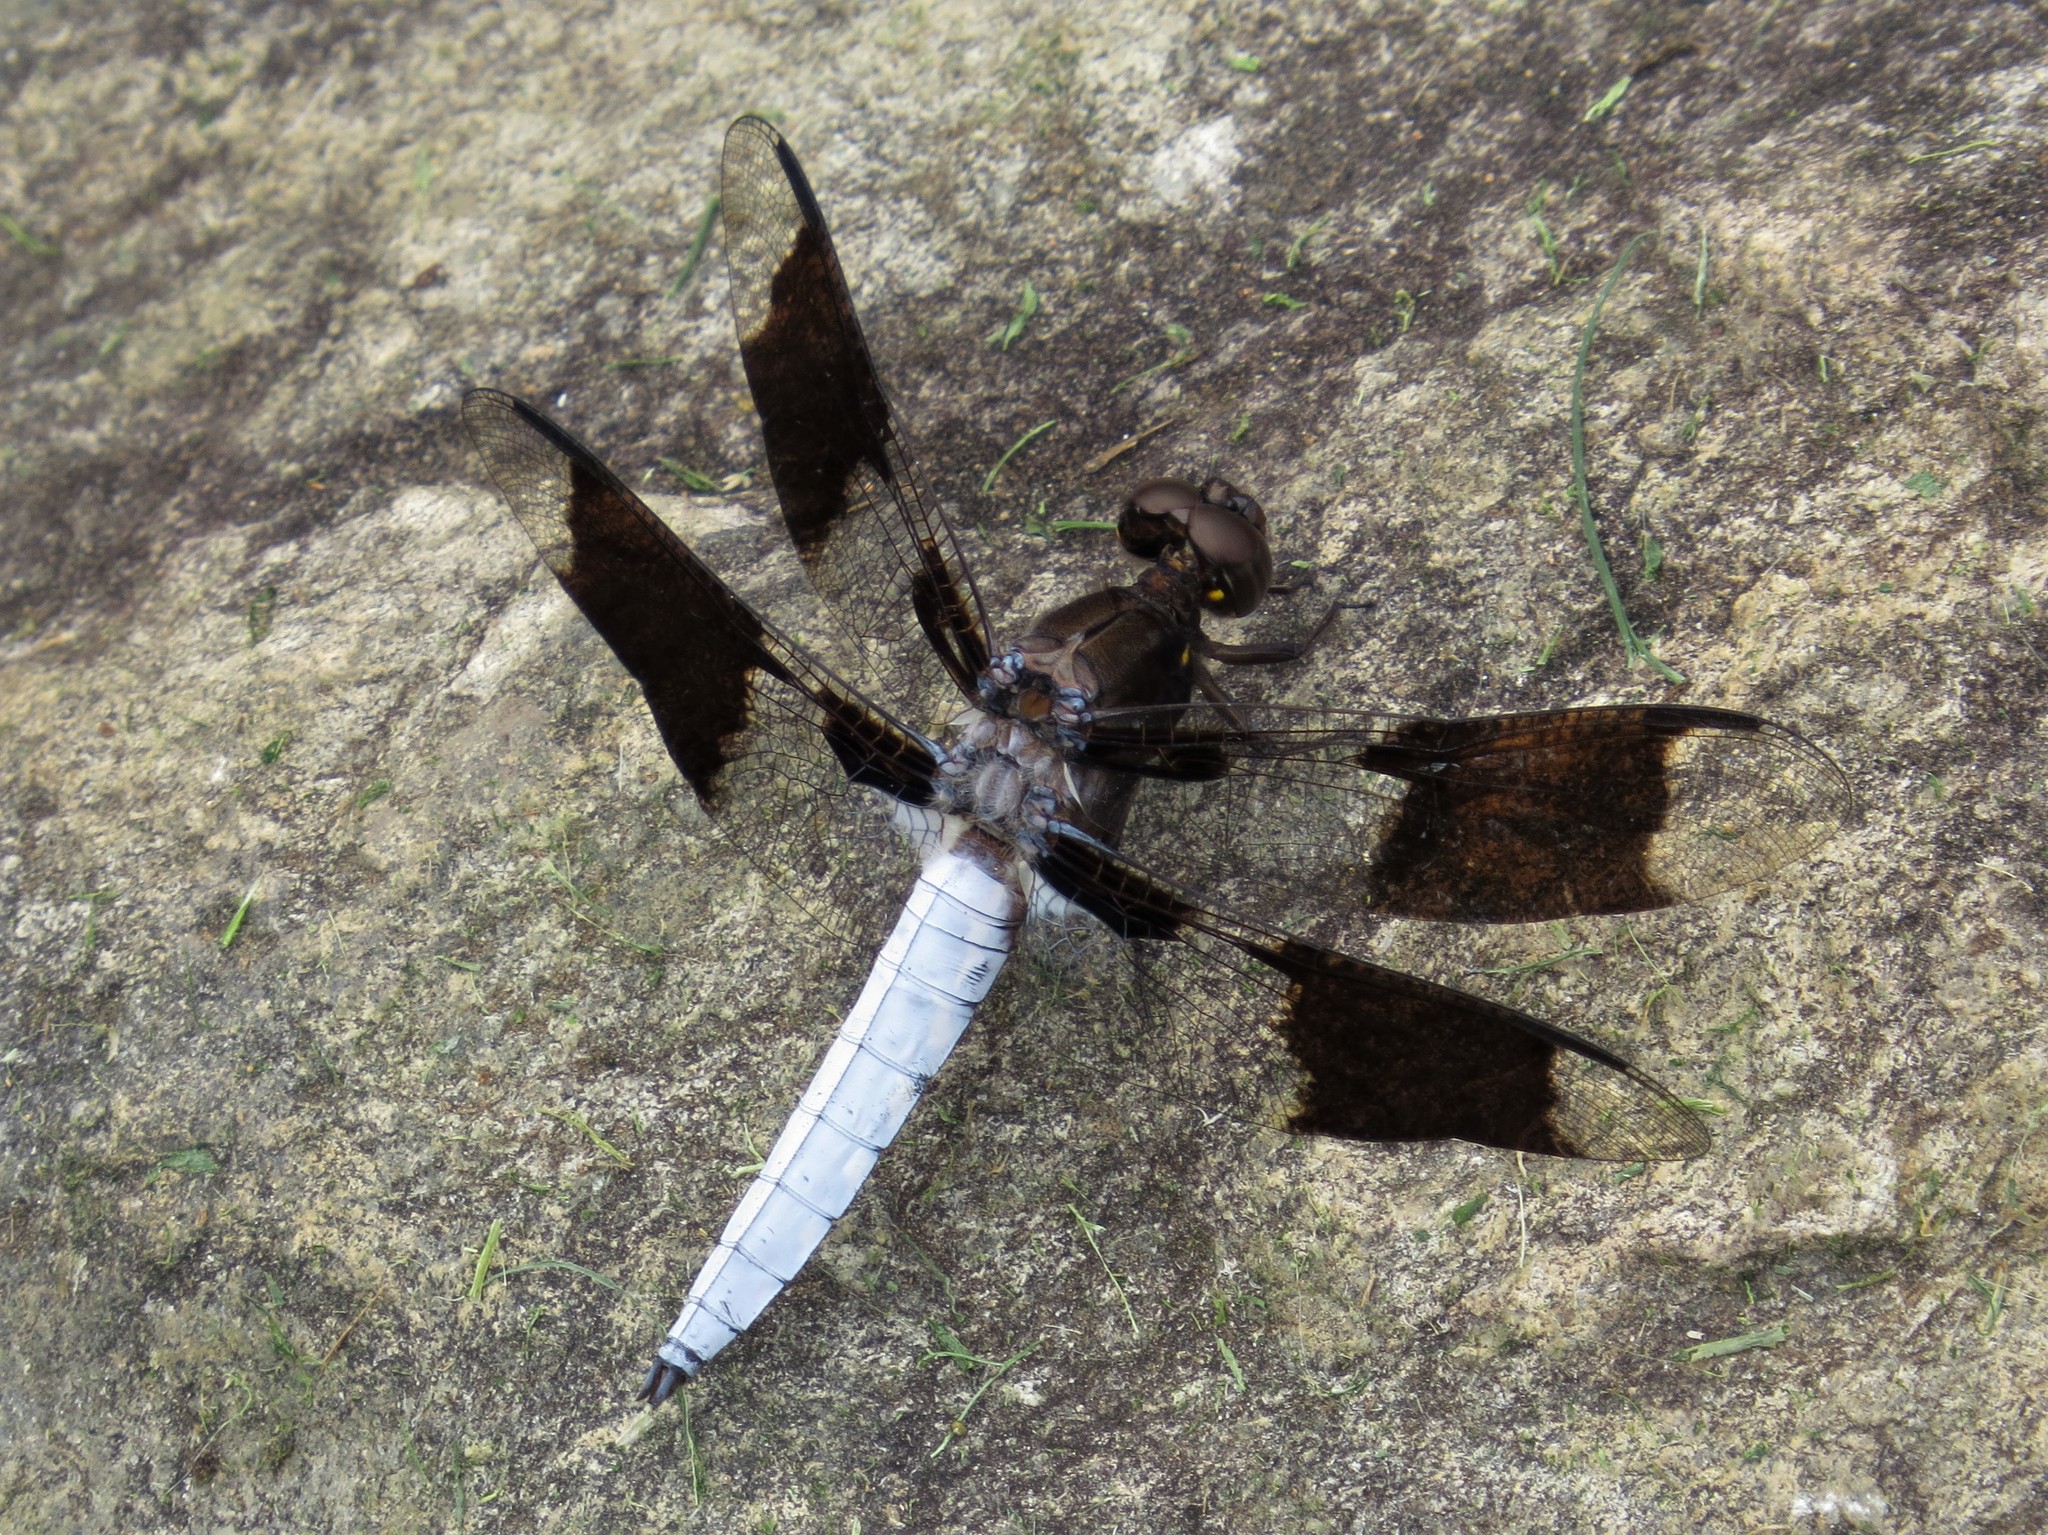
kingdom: Animalia
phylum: Arthropoda
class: Insecta
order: Odonata
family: Libellulidae
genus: Plathemis
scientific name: Plathemis lydia
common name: Common whitetail
